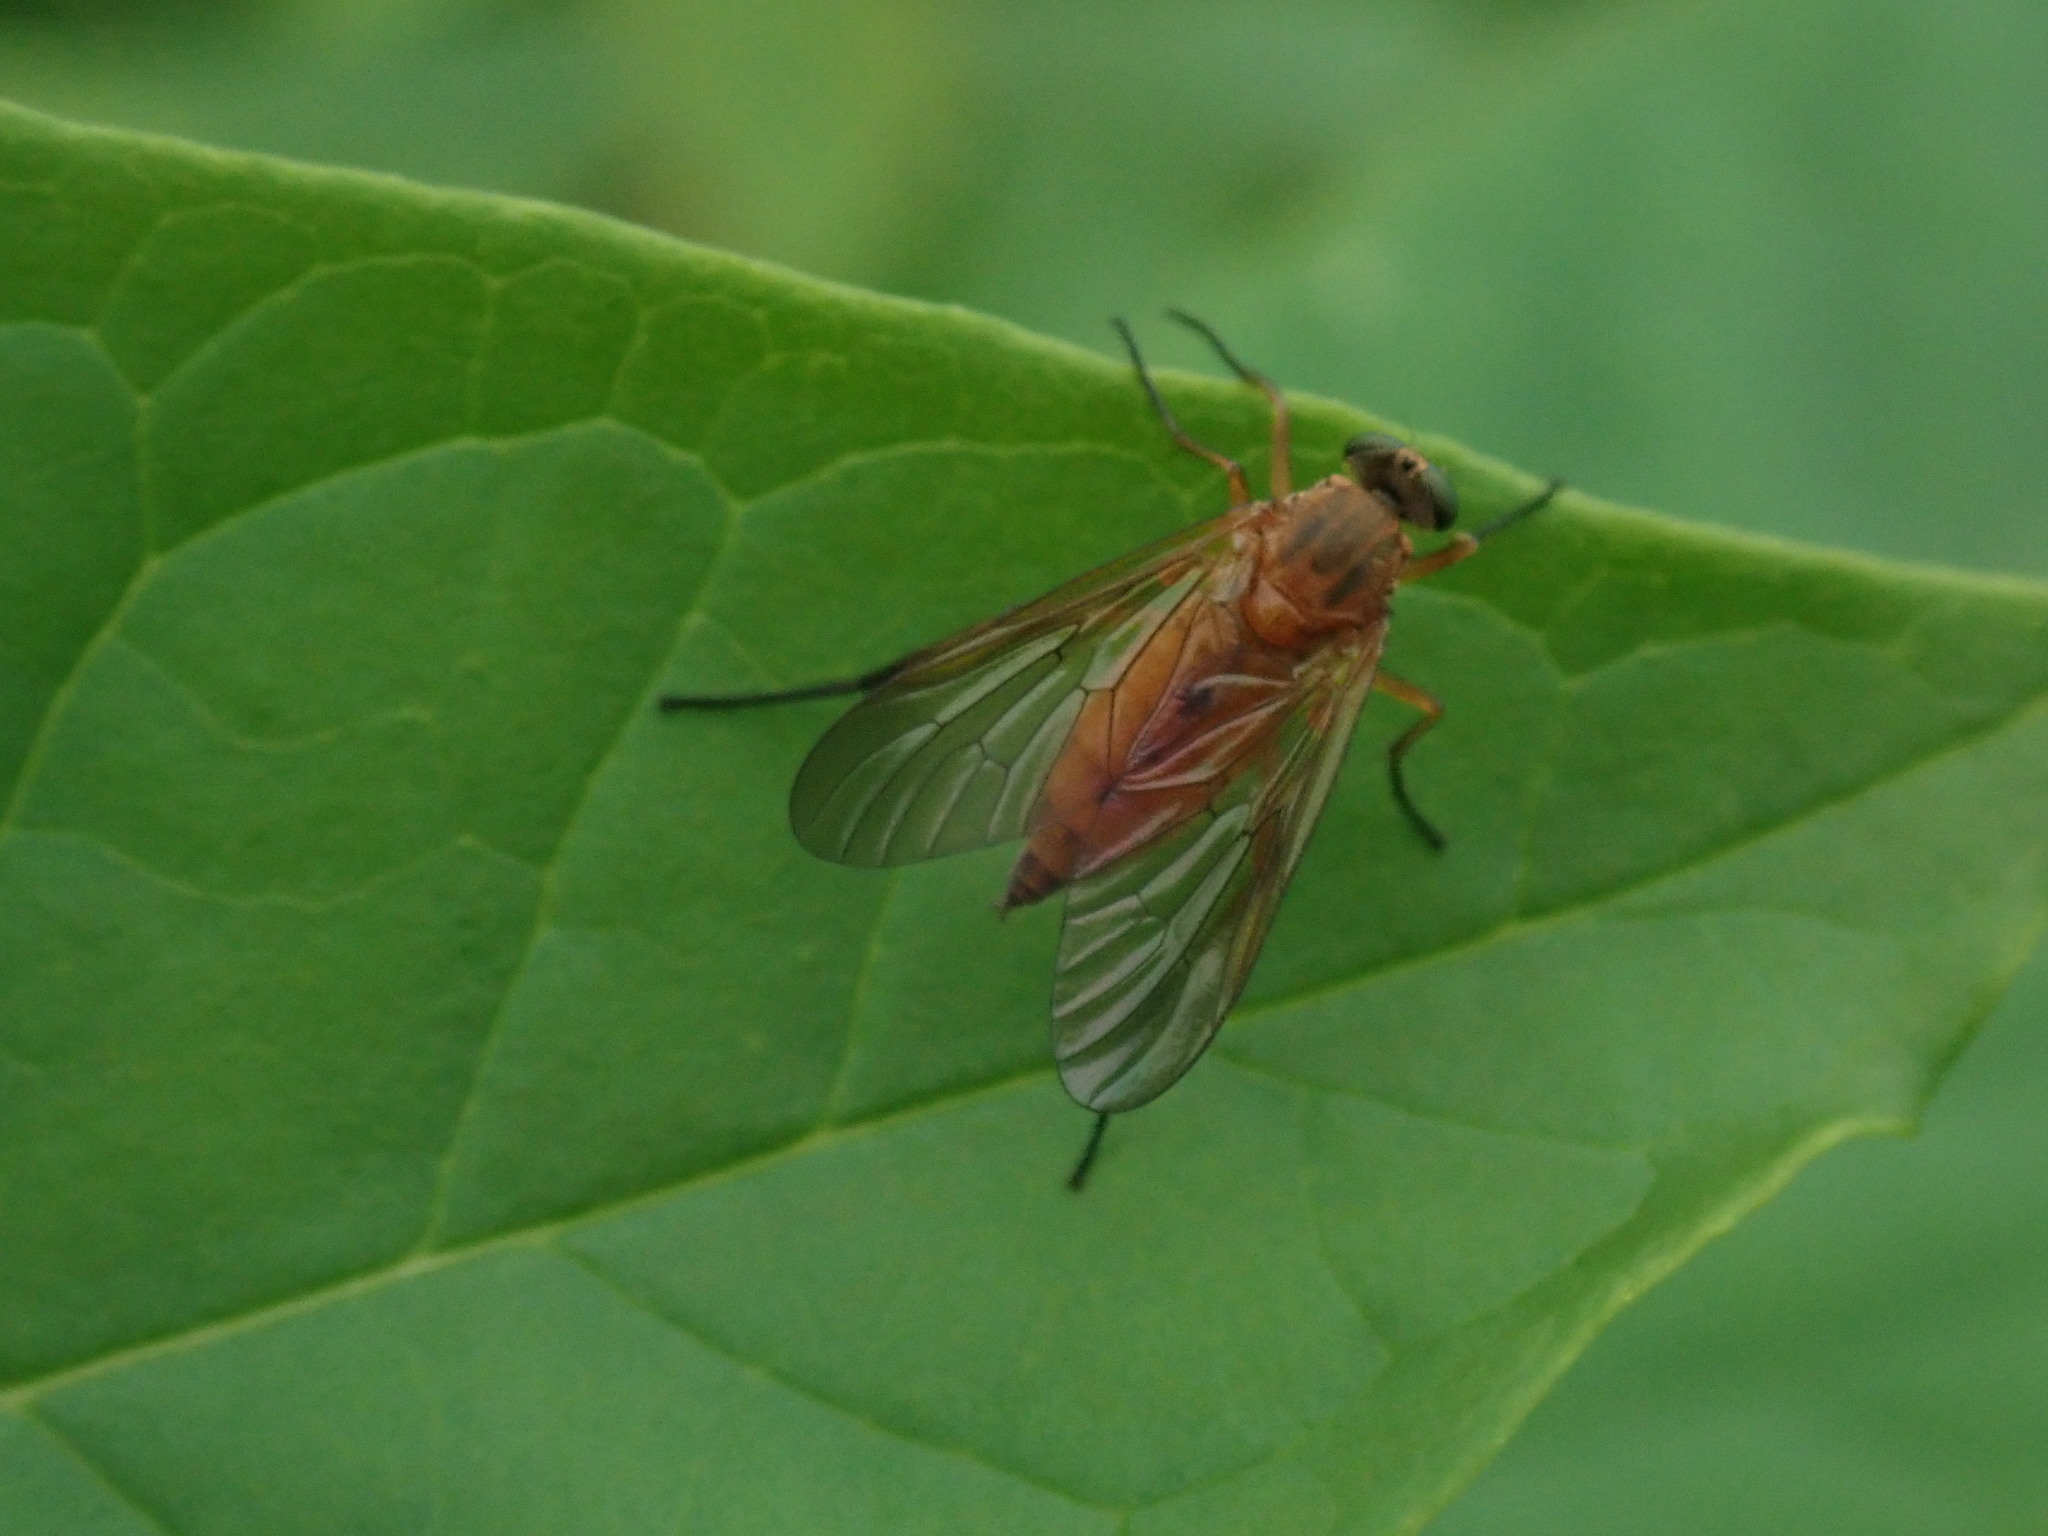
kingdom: Animalia
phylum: Arthropoda
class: Insecta
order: Diptera
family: Rhagionidae
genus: Rhagio
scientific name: Rhagio tringaria
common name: Marsh snipefly
